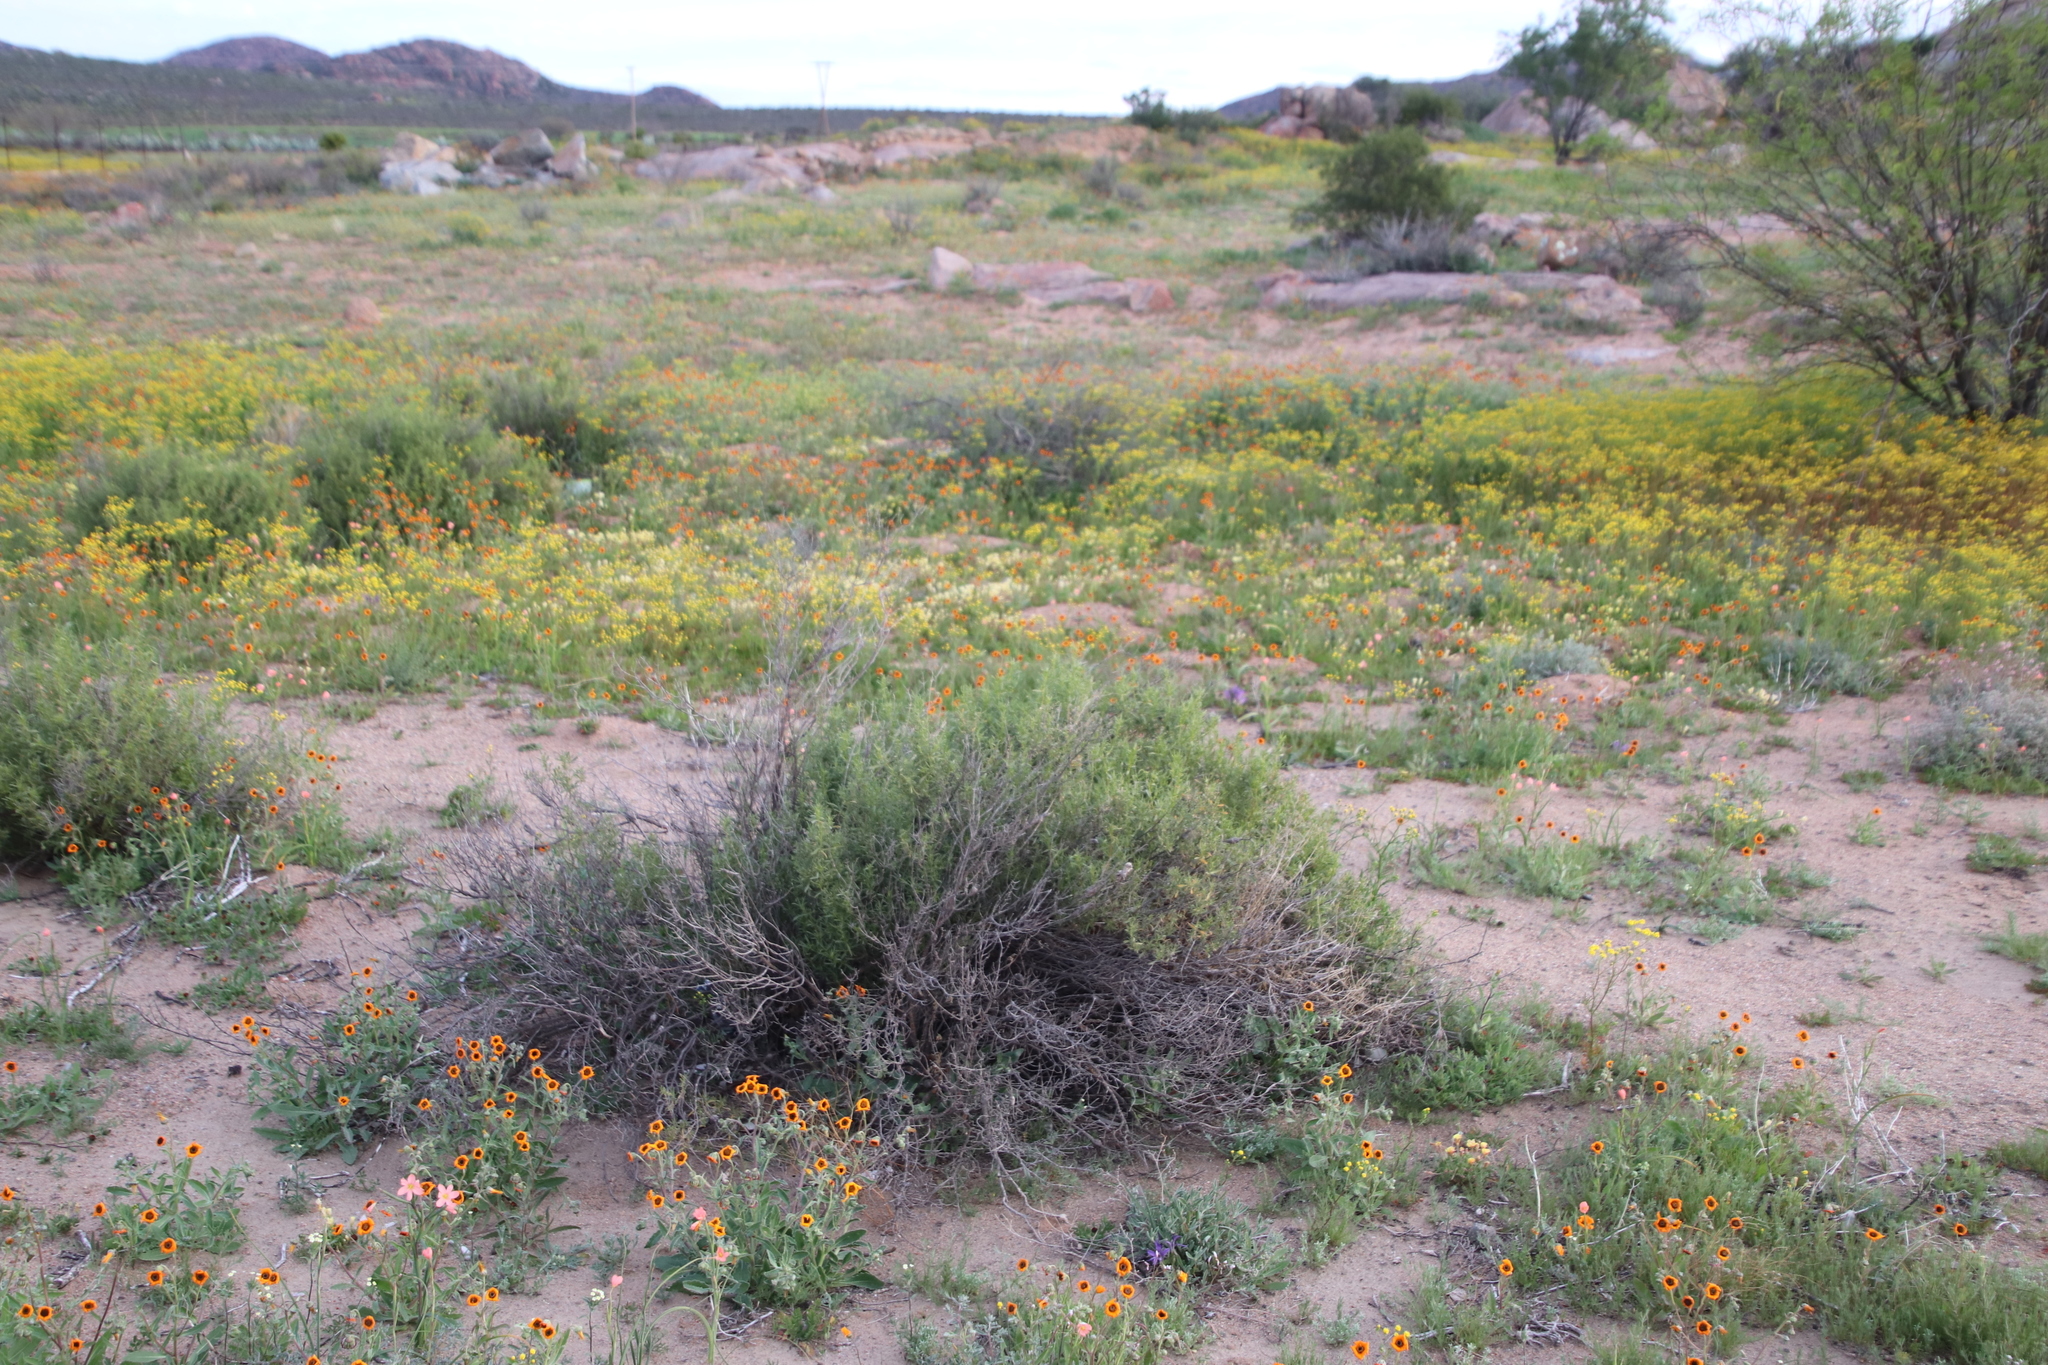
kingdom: Plantae
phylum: Tracheophyta
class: Magnoliopsida
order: Caryophyllales
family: Aizoaceae
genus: Aizoon
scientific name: Aizoon africanum
